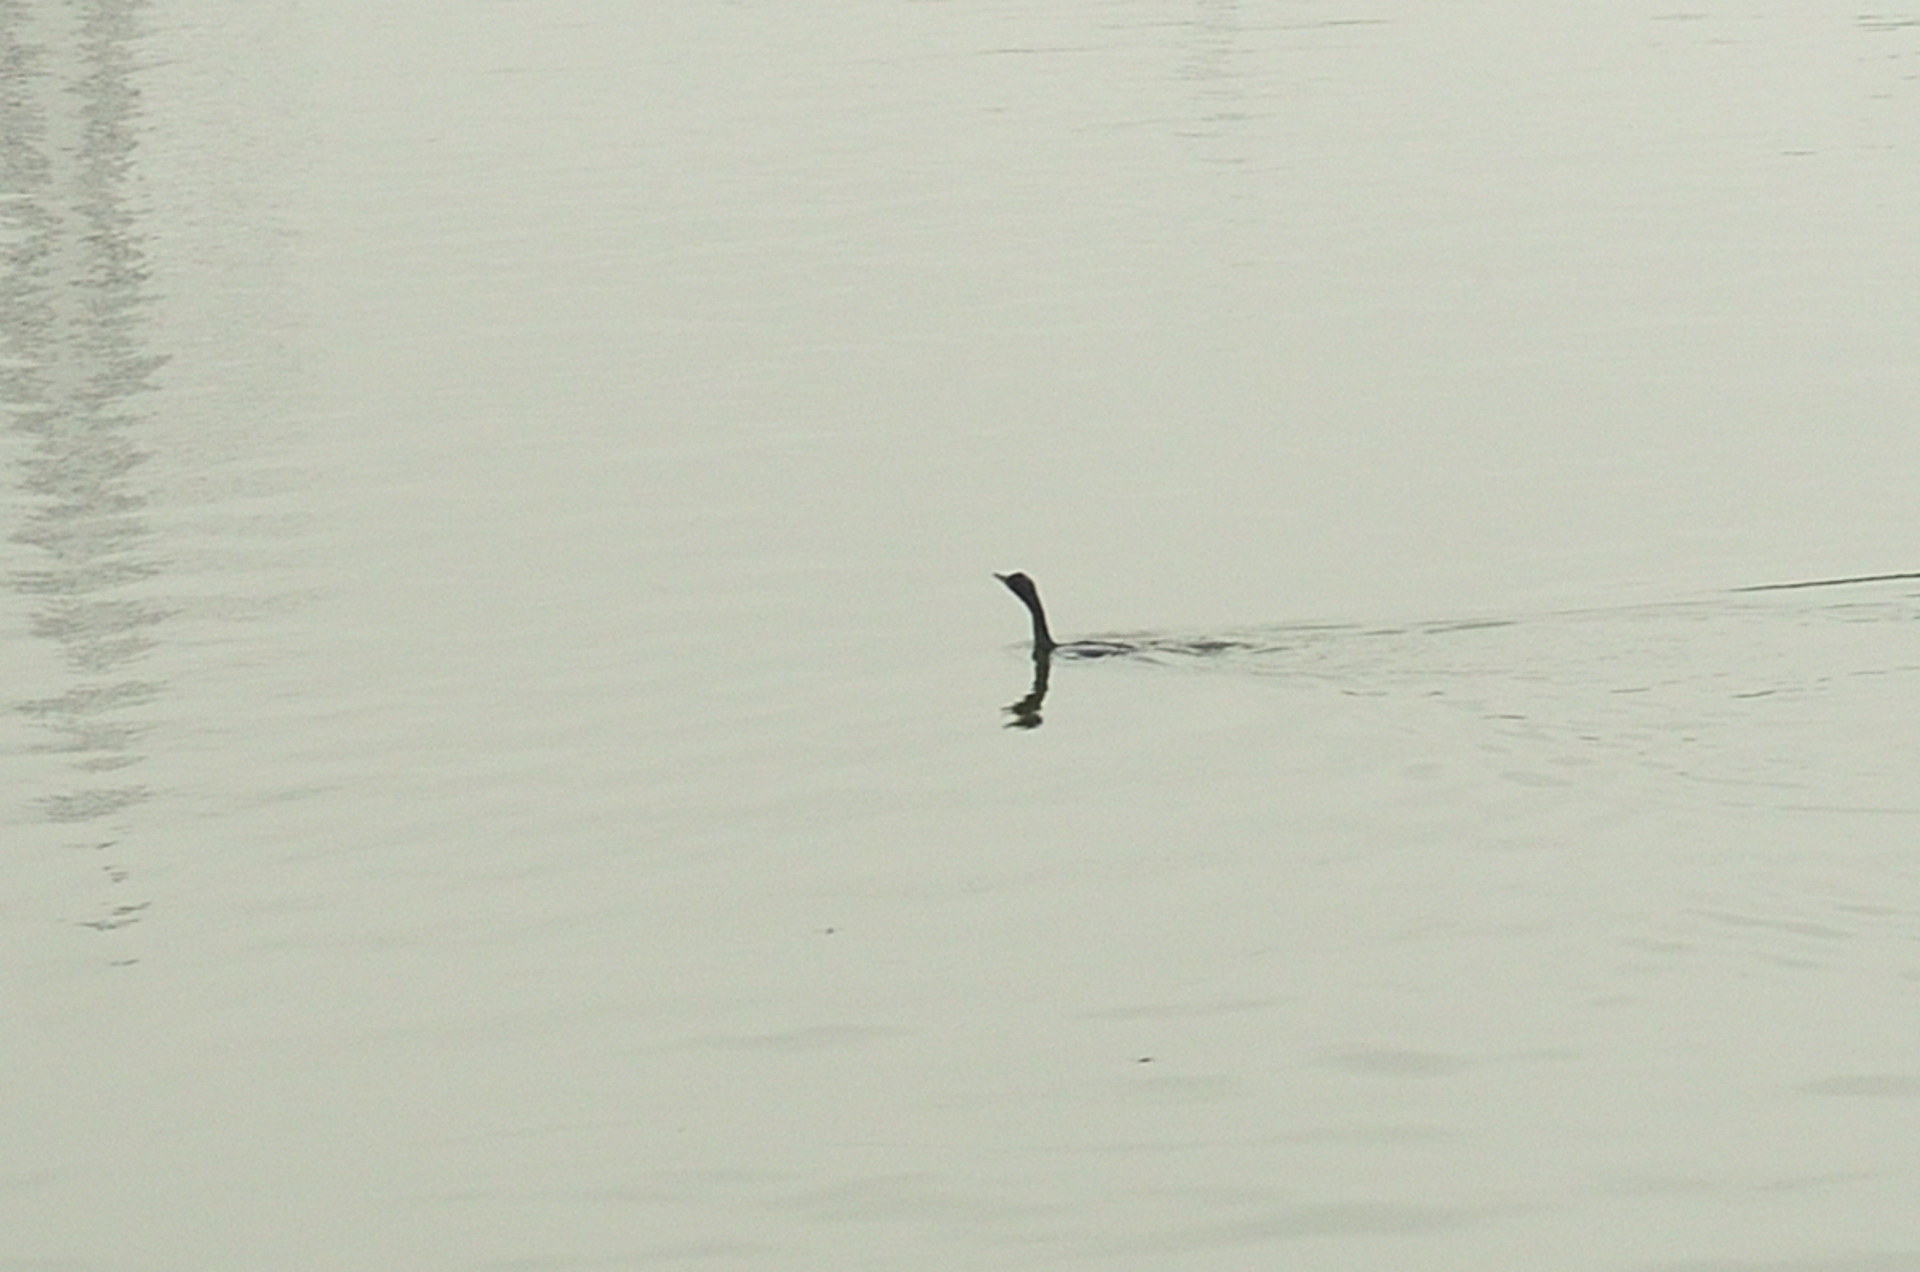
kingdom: Animalia
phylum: Chordata
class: Aves
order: Suliformes
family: Phalacrocoracidae
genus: Microcarbo
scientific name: Microcarbo niger
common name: Little cormorant
